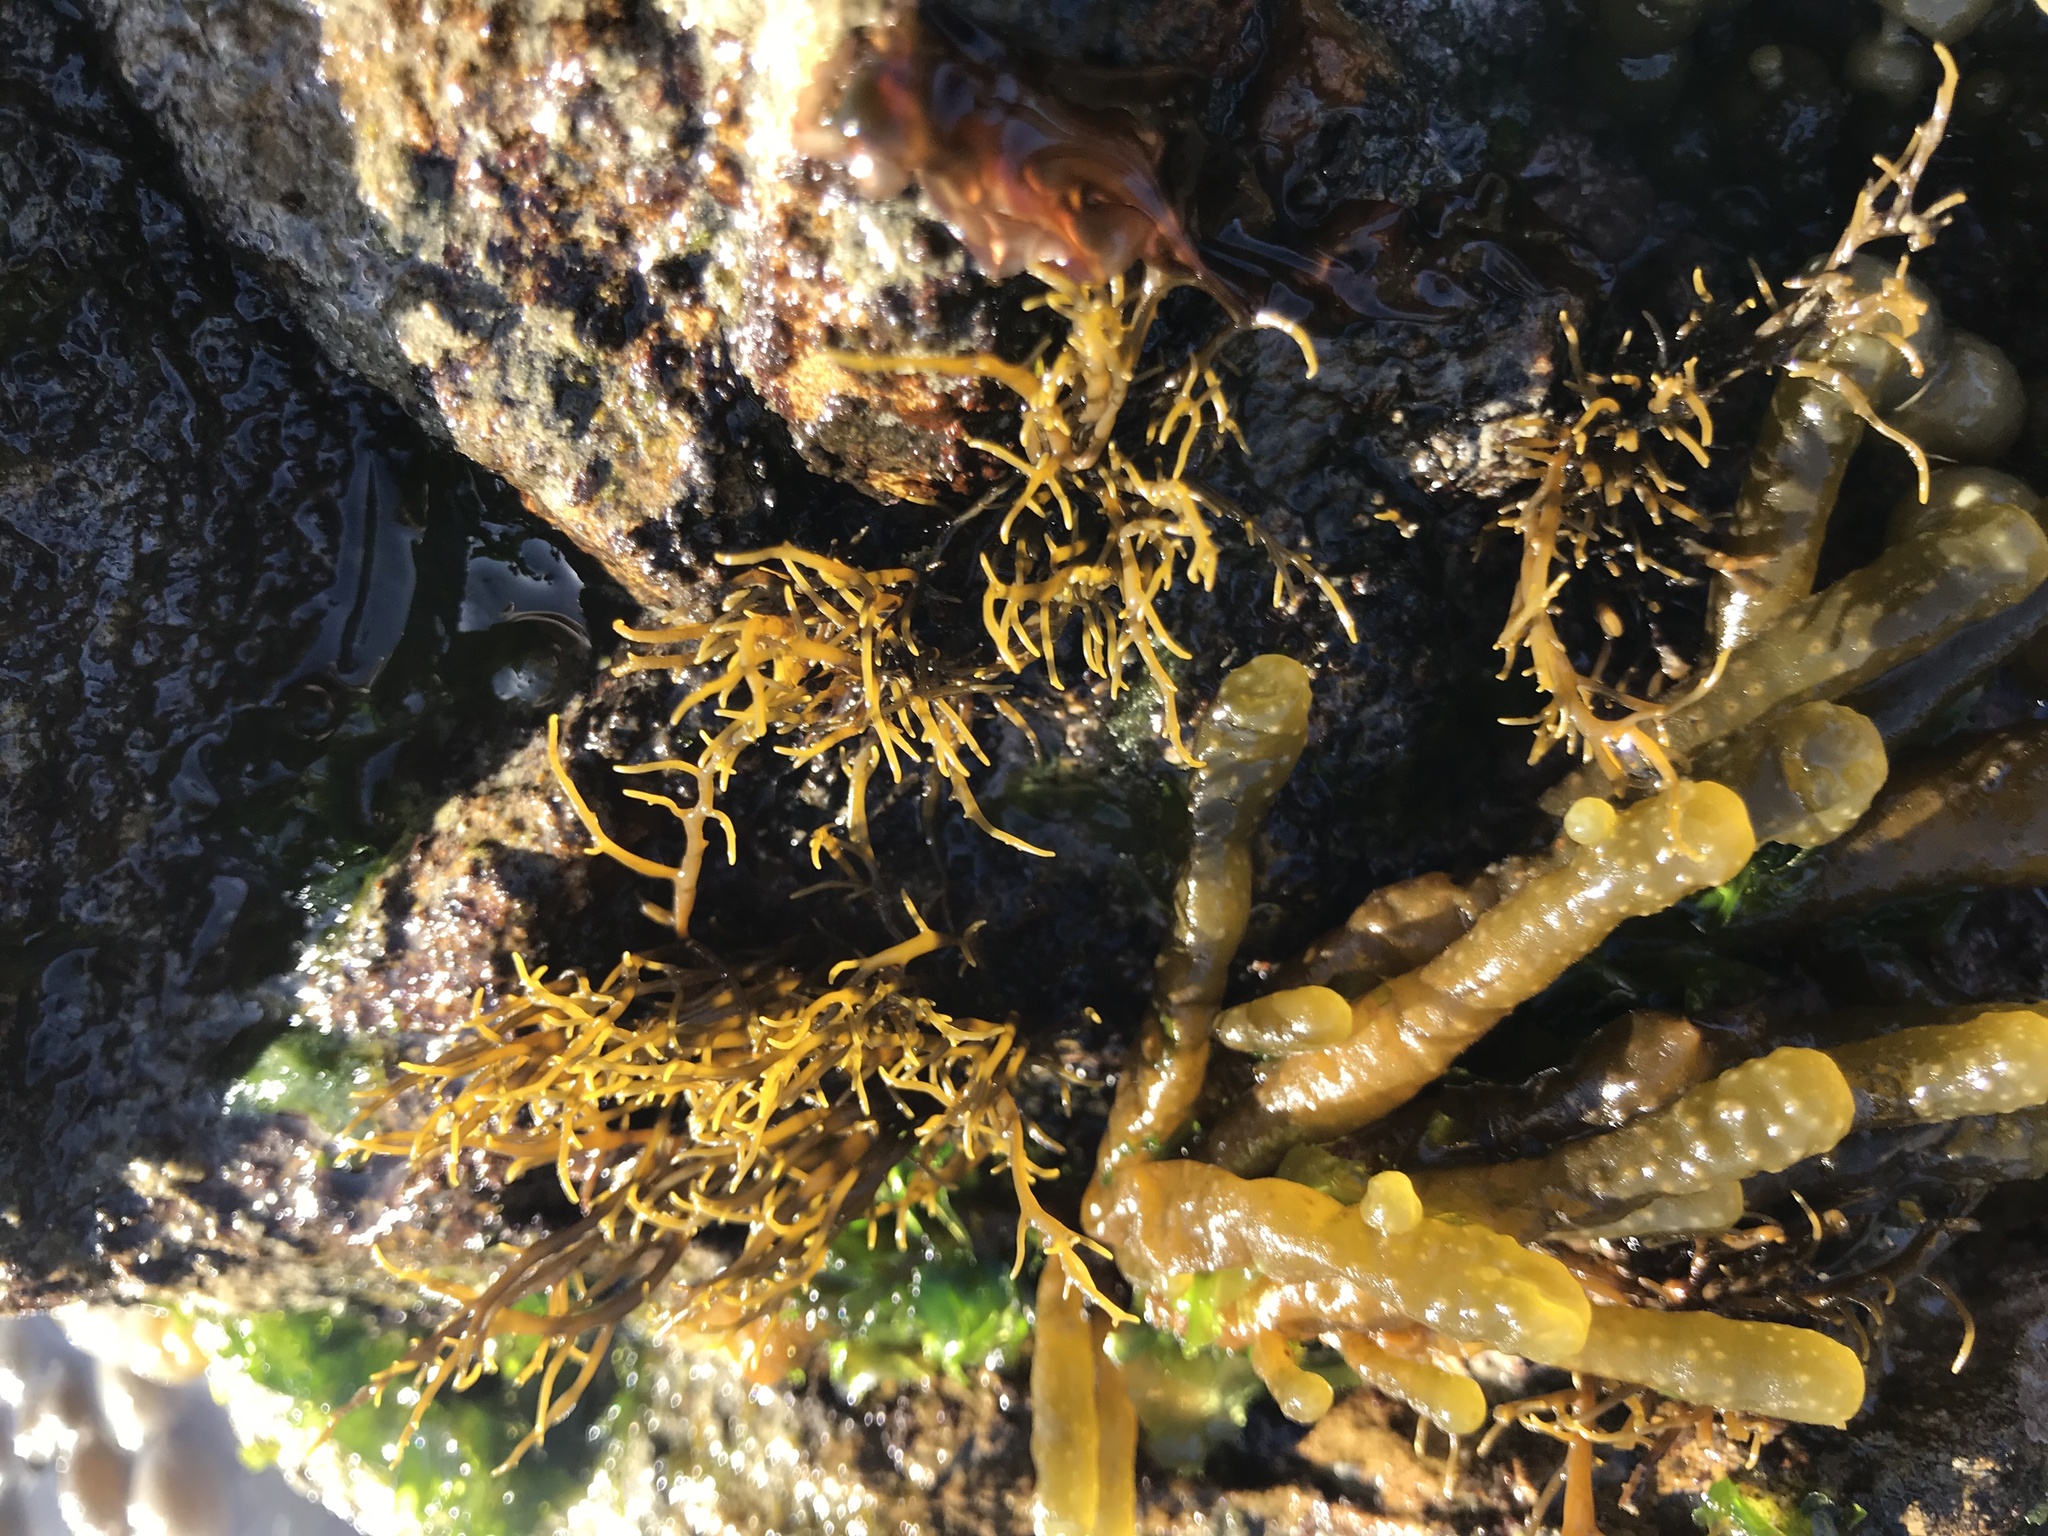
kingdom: Chromista
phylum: Ochrophyta
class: Phaeophyceae
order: Scytothamnales
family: Scytothamnaceae
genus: Scytothamnus
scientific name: Scytothamnus australis
